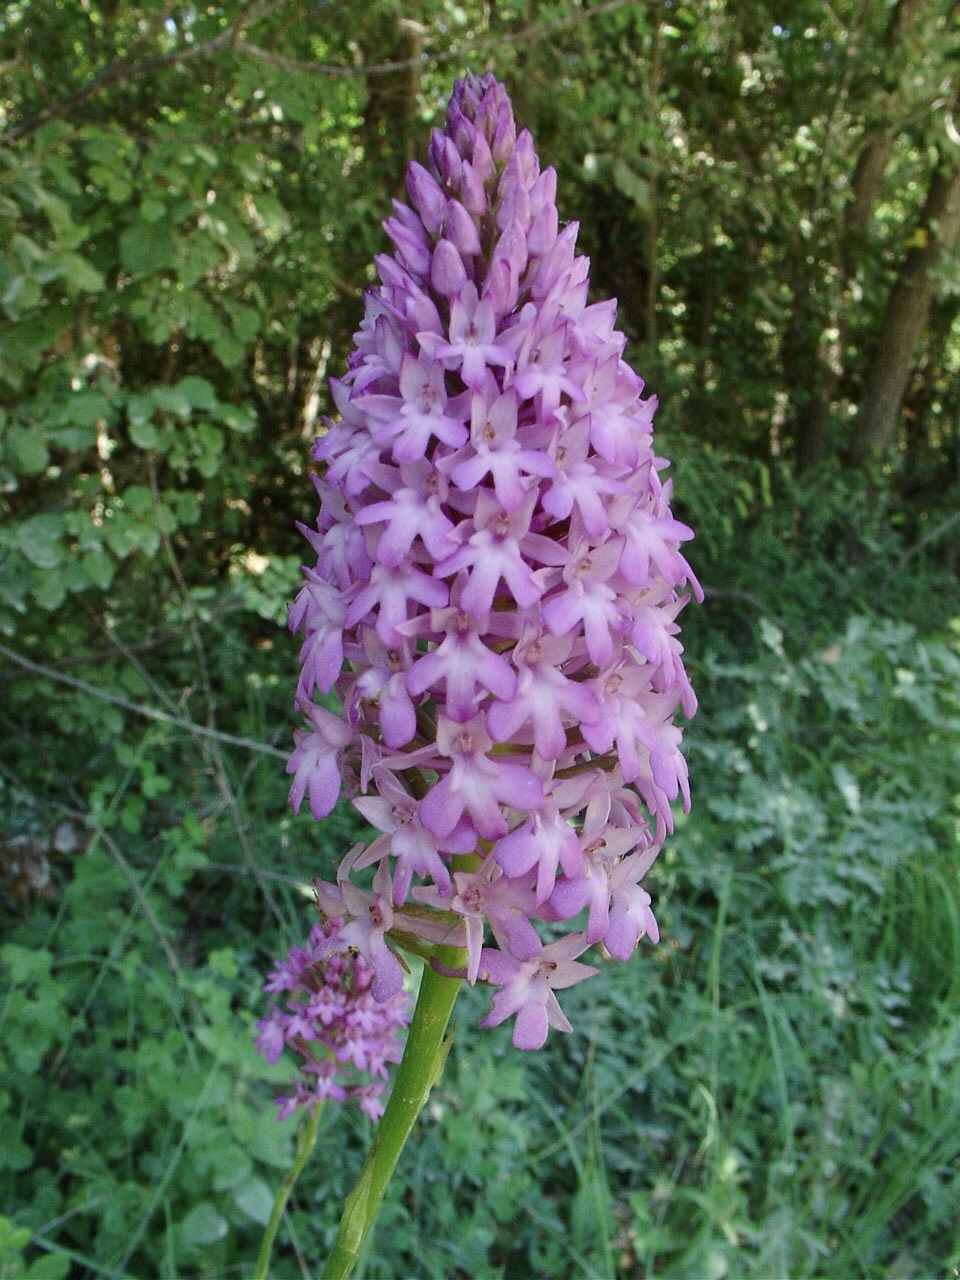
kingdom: Plantae
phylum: Tracheophyta
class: Liliopsida
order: Asparagales
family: Orchidaceae
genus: Anacamptis
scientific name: Anacamptis pyramidalis
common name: Pyramidal orchid
